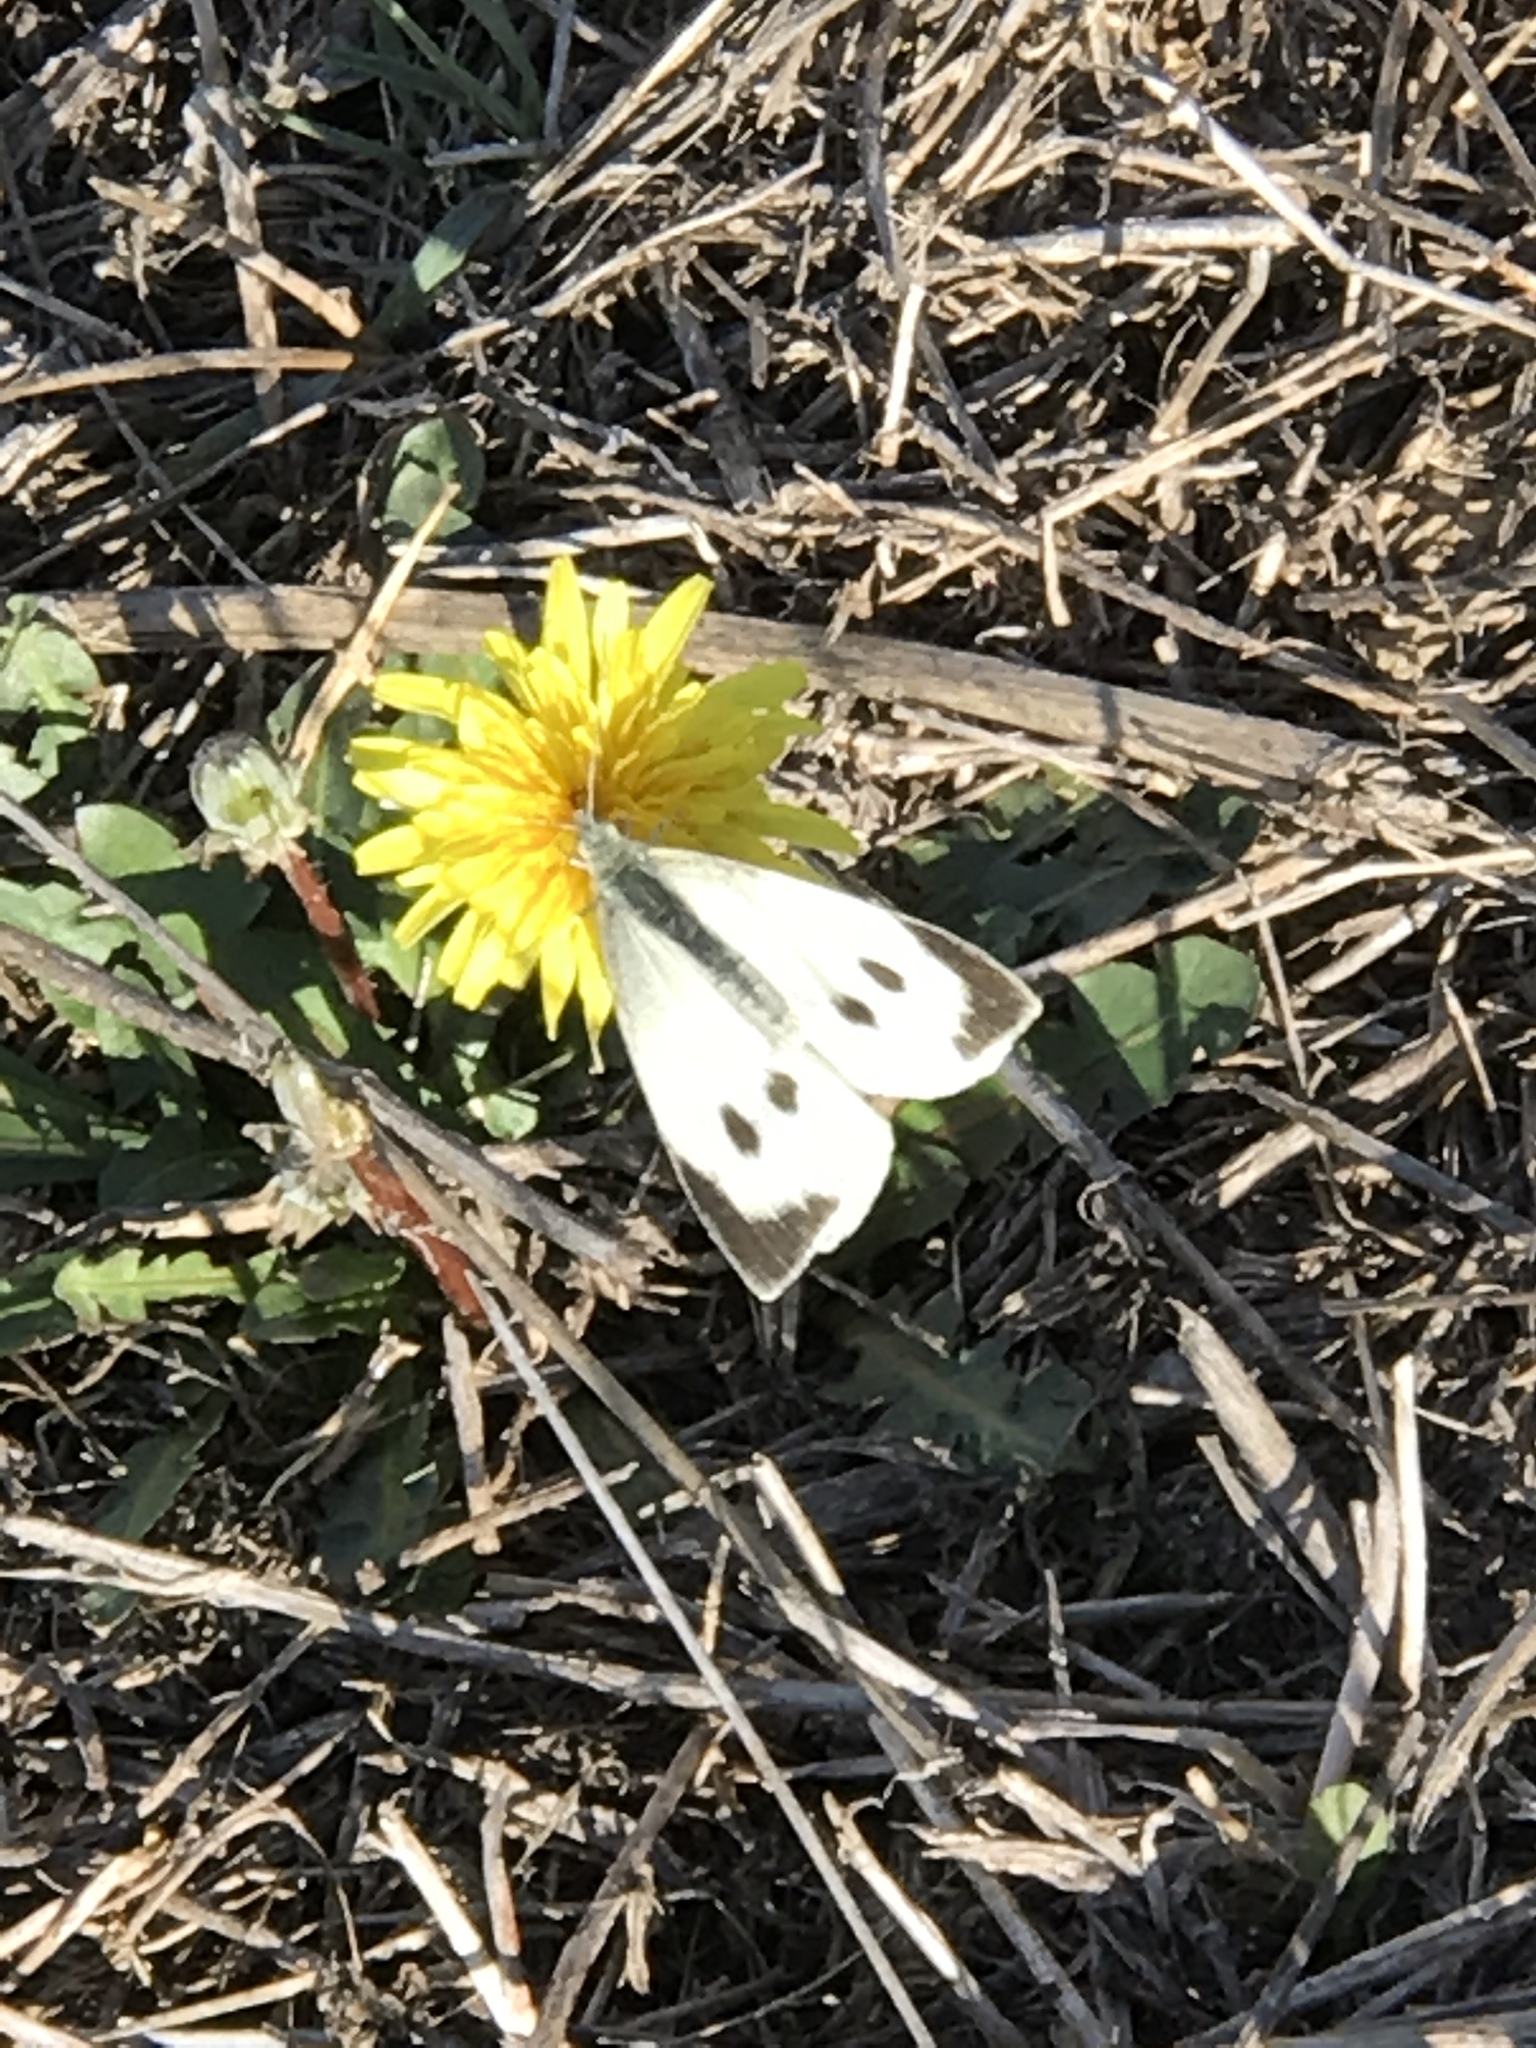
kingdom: Animalia
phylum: Arthropoda
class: Insecta
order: Lepidoptera
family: Pieridae
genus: Pieris
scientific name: Pieris brassicae
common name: Large white
